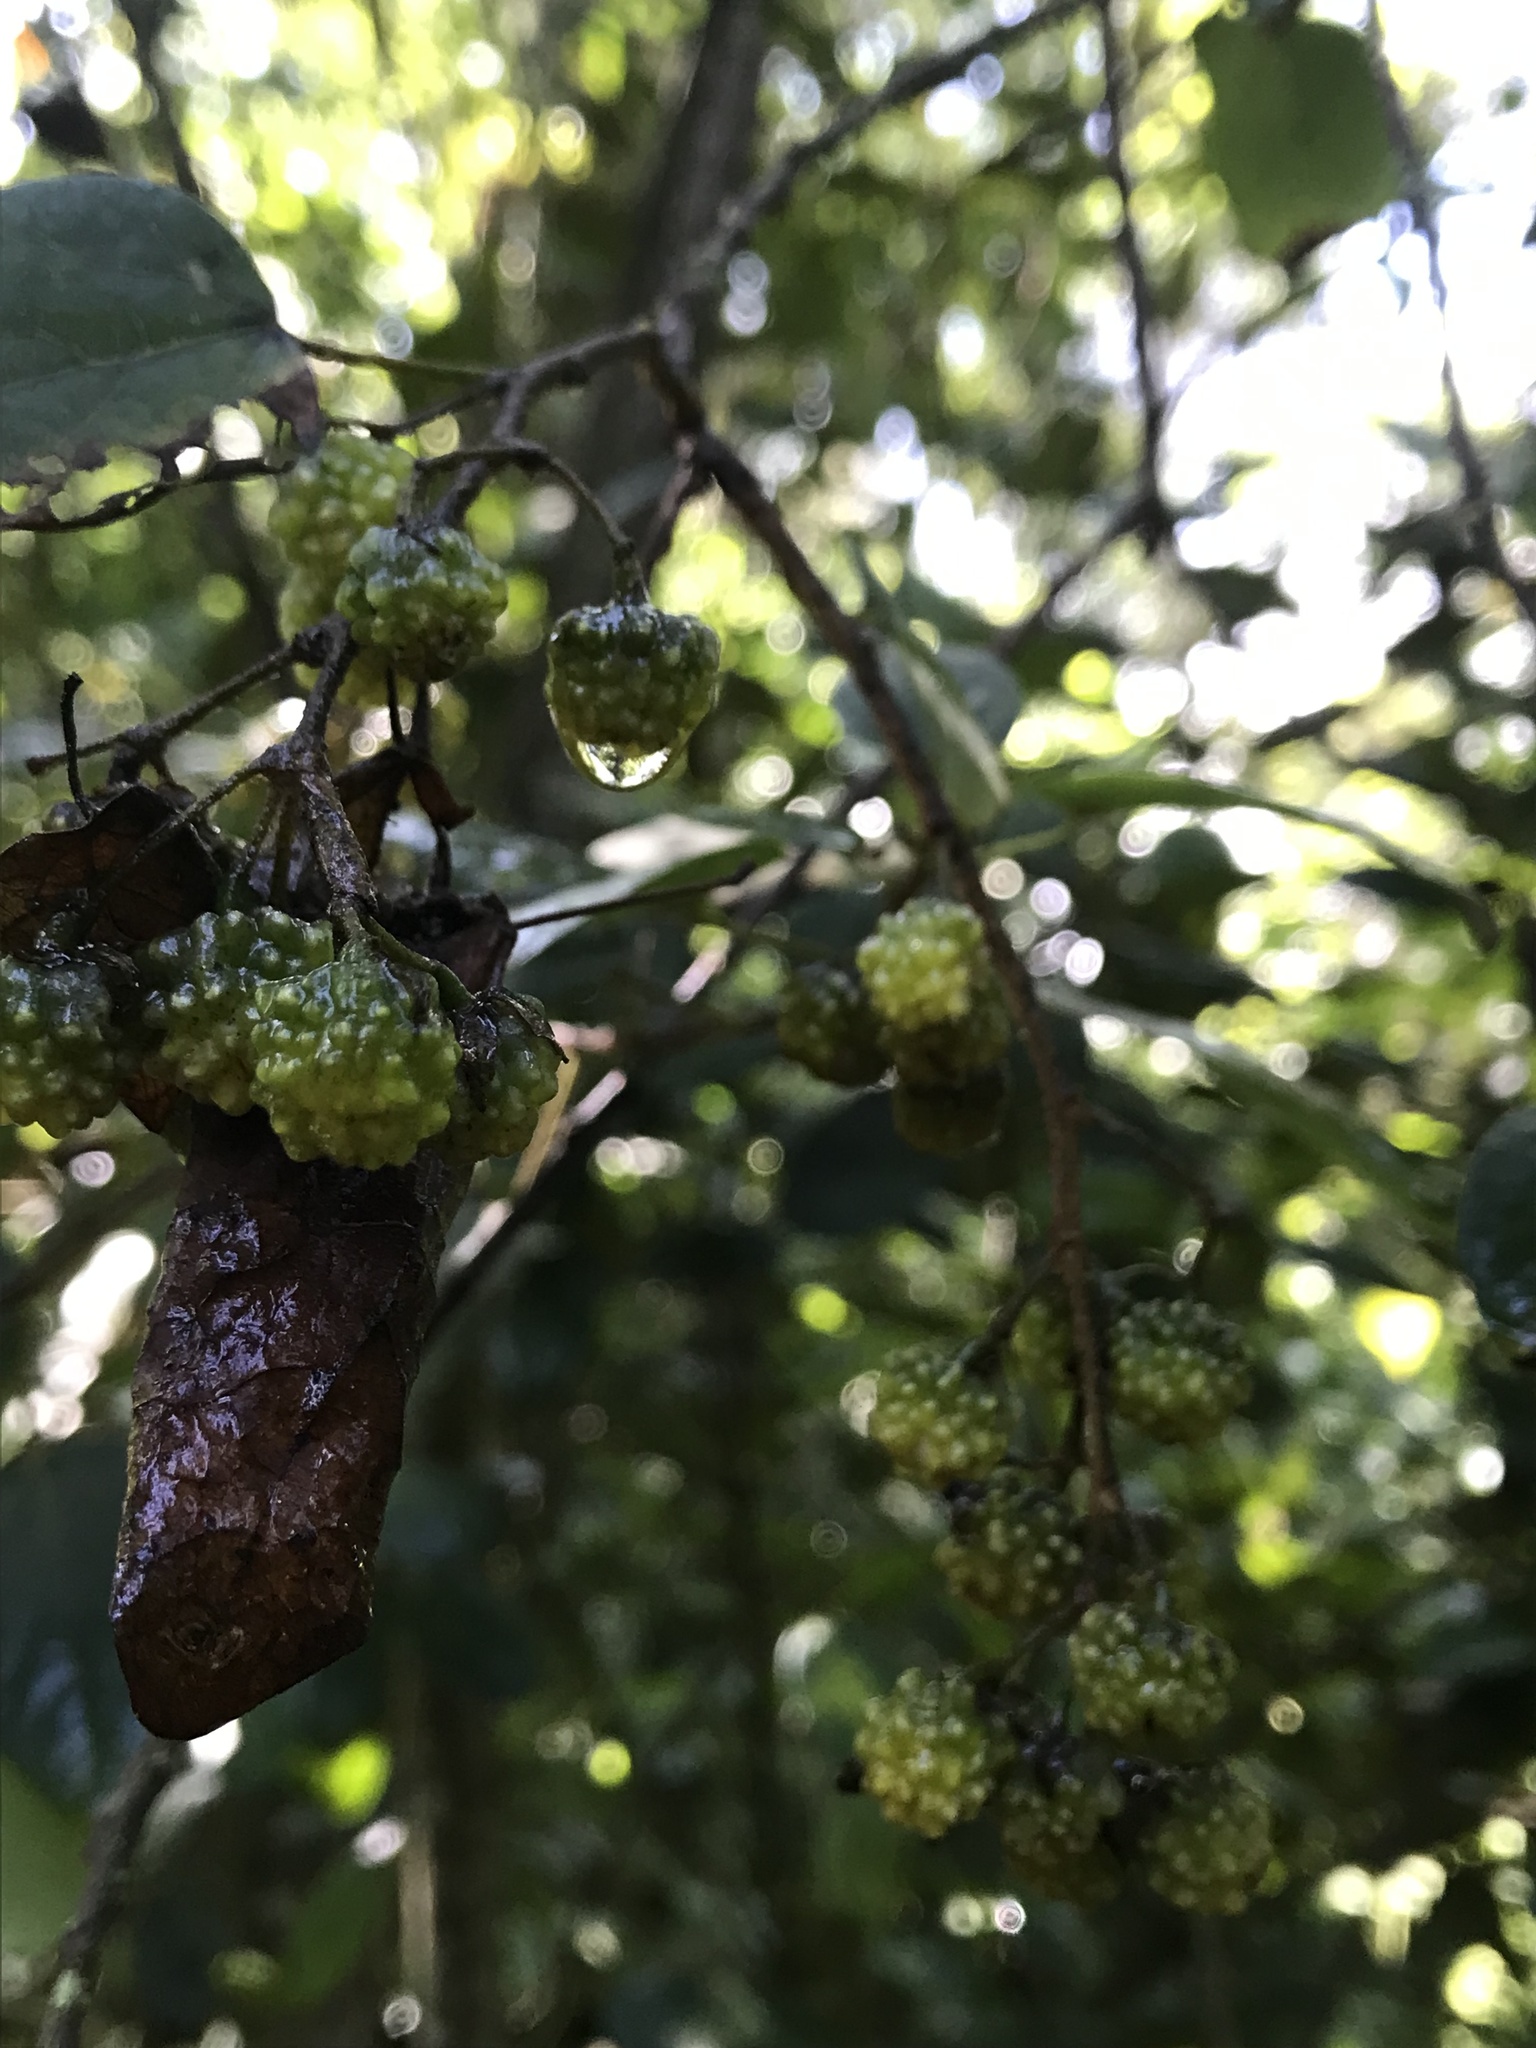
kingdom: Plantae
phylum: Tracheophyta
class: Magnoliopsida
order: Oxalidales
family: Elaeocarpaceae
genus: Vallea
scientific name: Vallea stipularis
